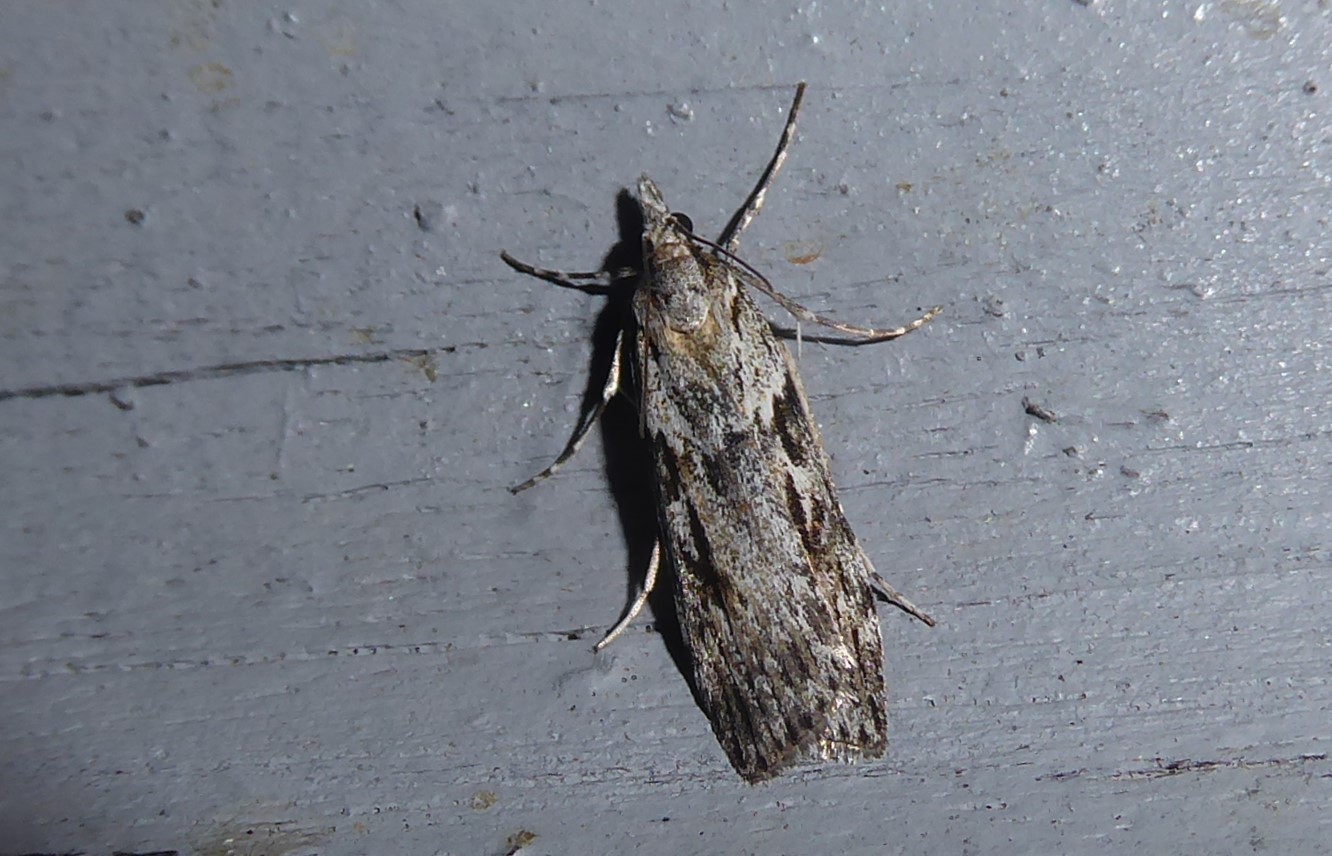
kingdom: Animalia
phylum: Arthropoda
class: Insecta
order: Lepidoptera
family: Crambidae
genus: Scoparia
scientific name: Scoparia halopis
